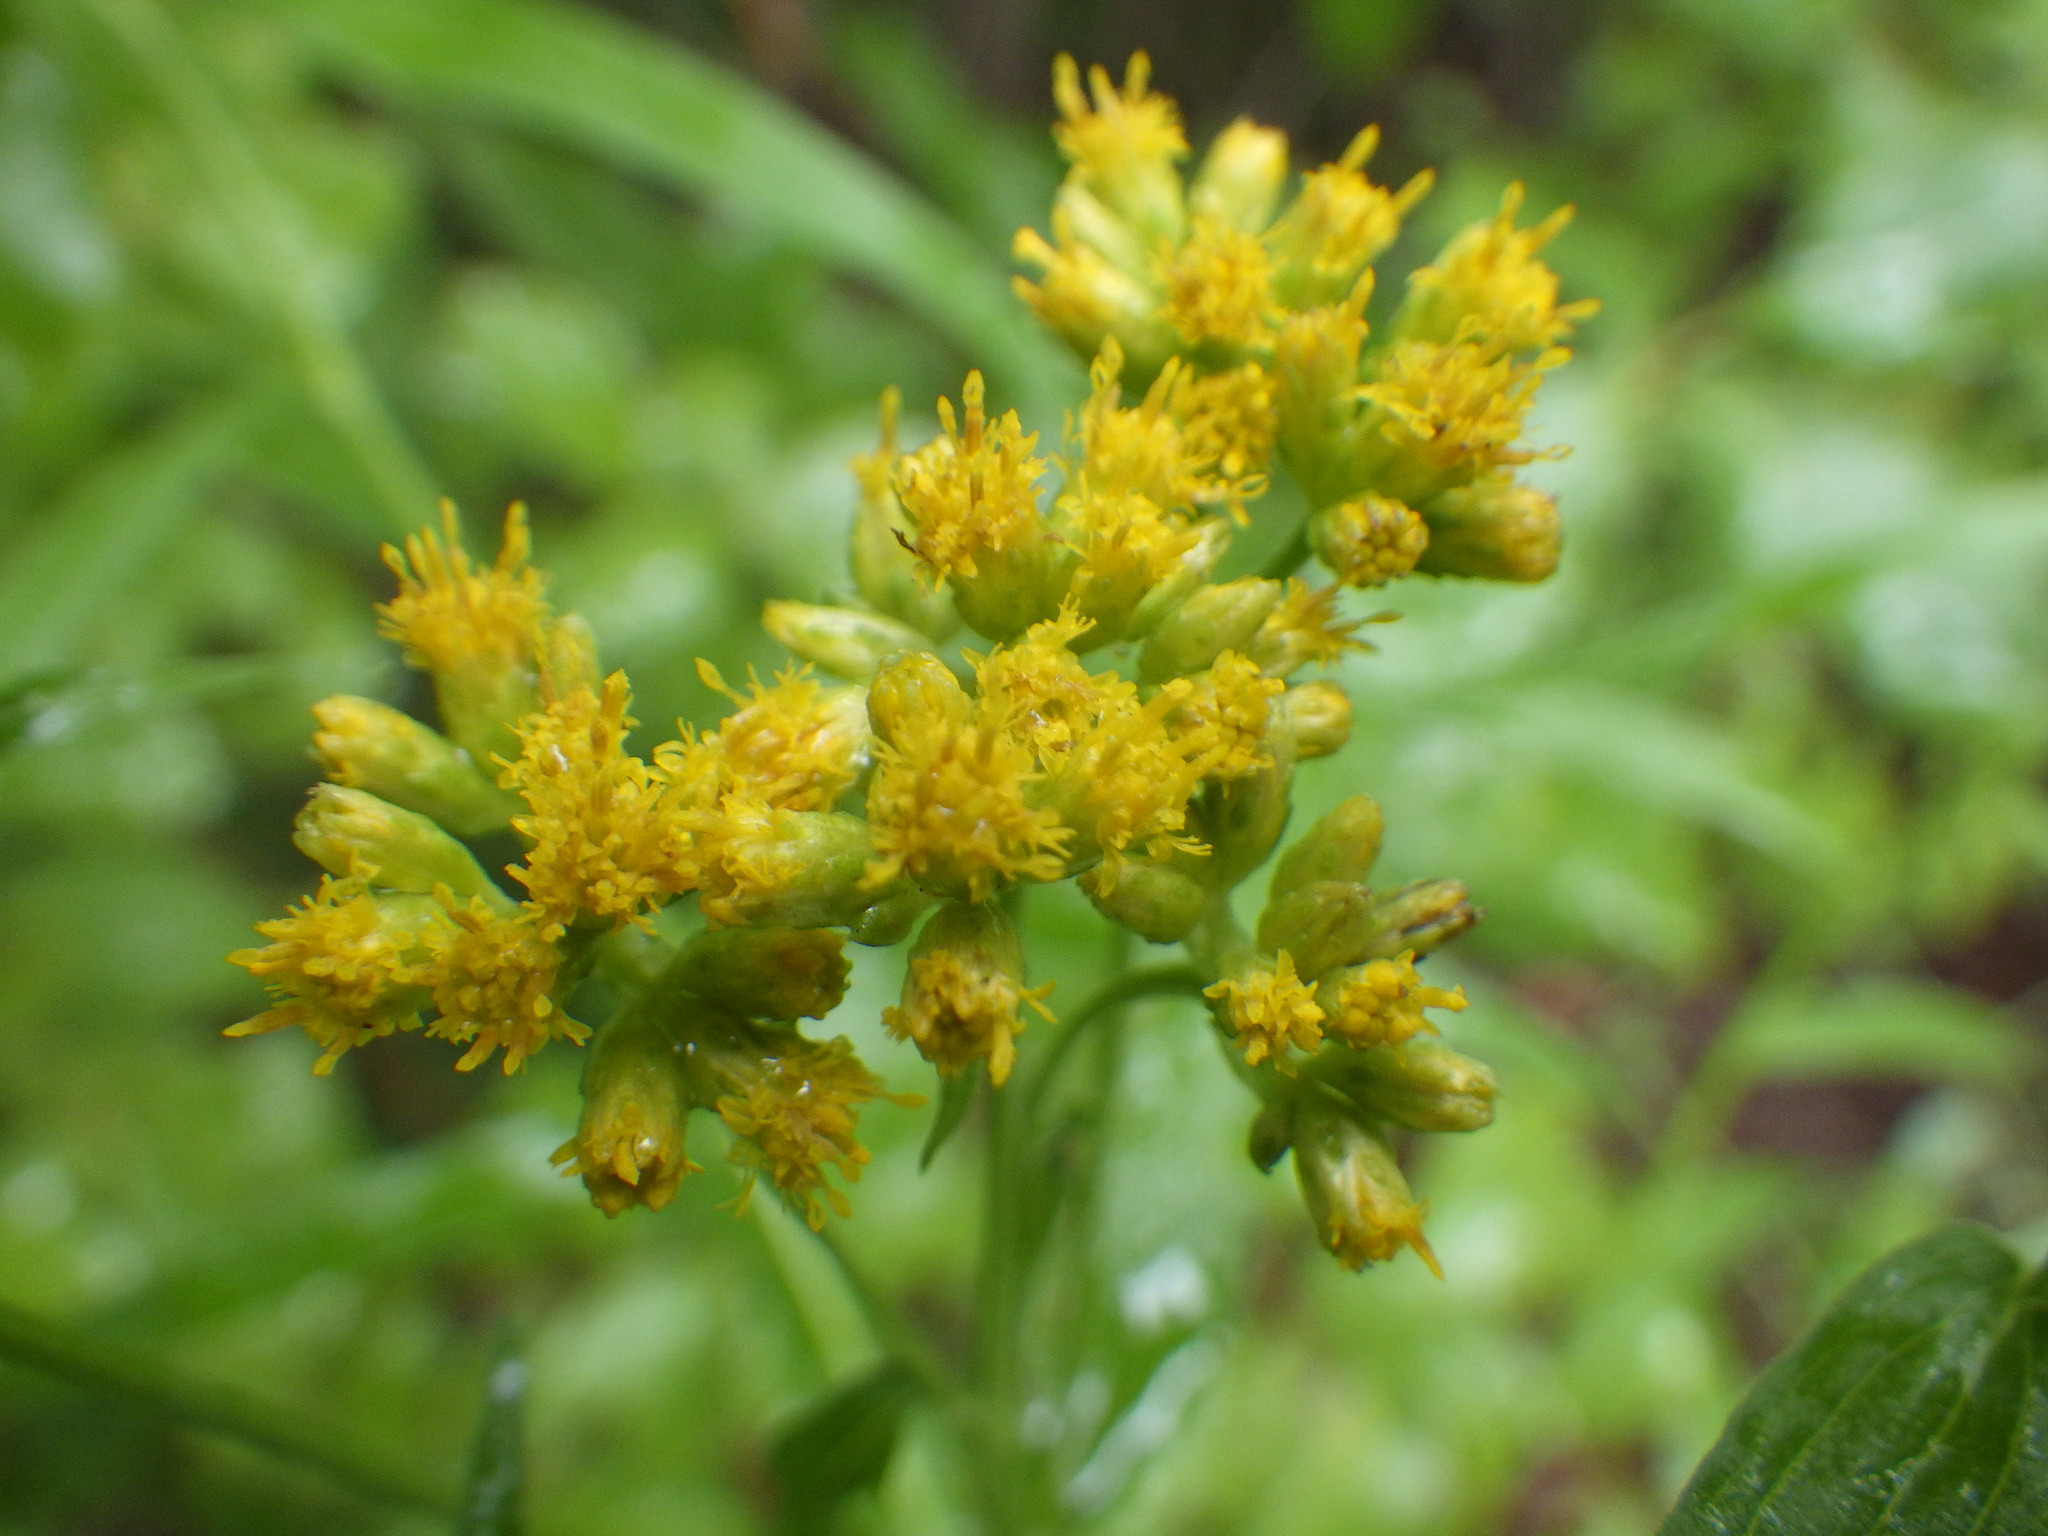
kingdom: Plantae
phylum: Tracheophyta
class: Magnoliopsida
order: Asterales
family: Asteraceae
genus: Euthamia
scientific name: Euthamia graminifolia
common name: Common goldentop
